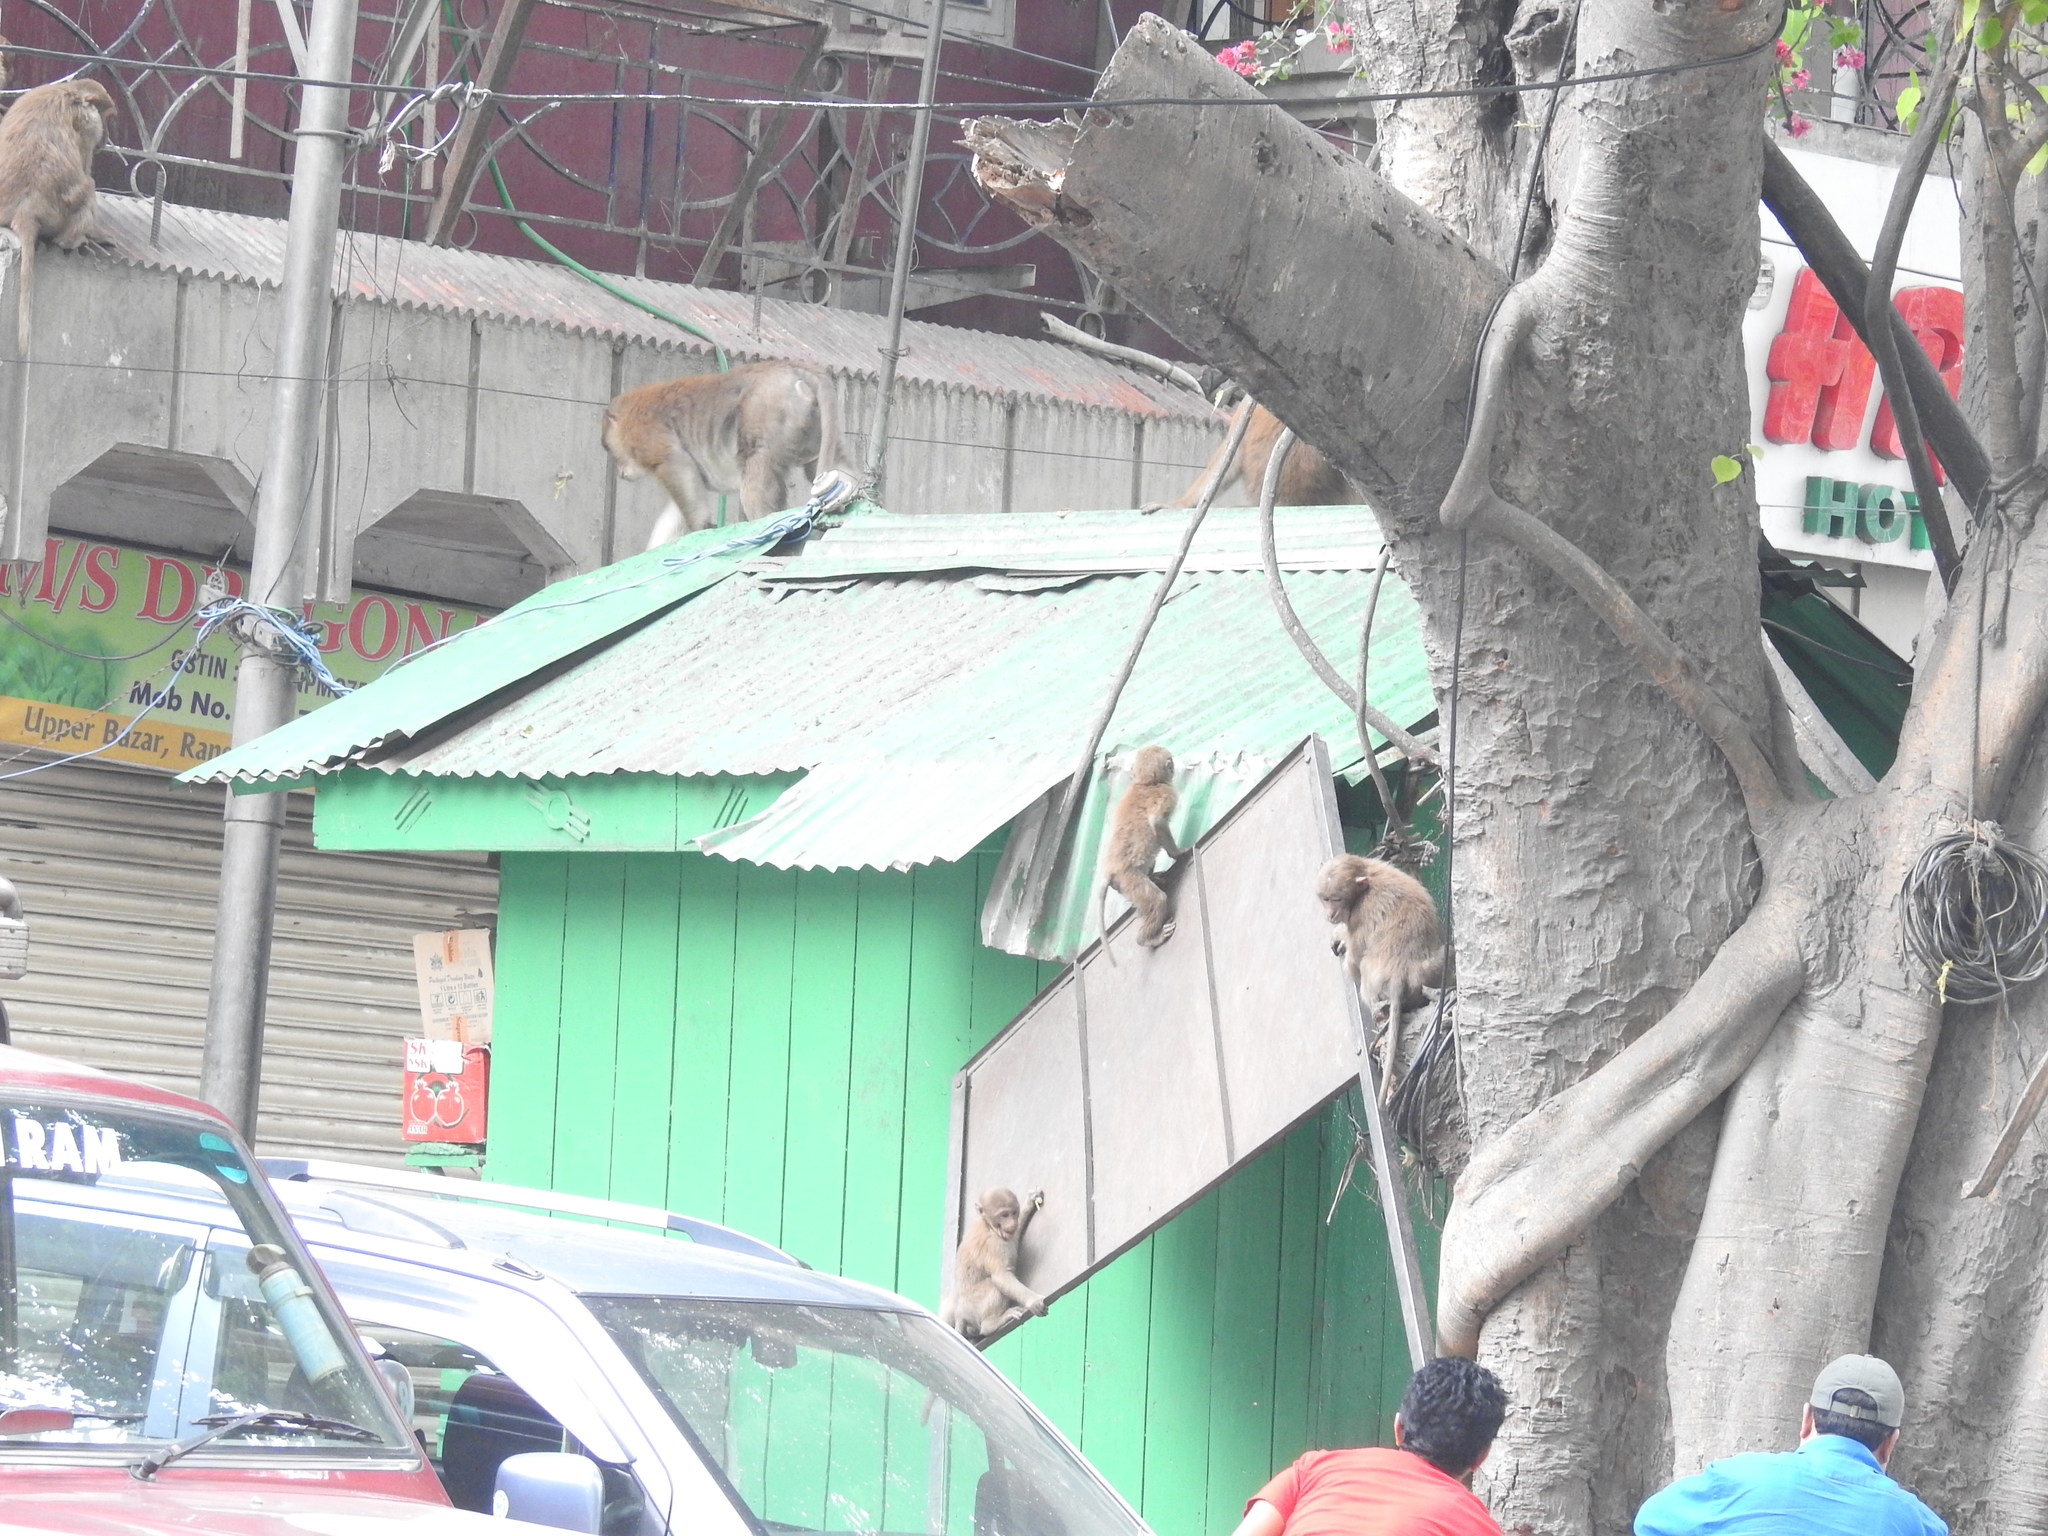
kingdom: Animalia
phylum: Chordata
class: Mammalia
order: Primates
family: Cercopithecidae
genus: Macaca
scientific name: Macaca assamensis
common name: Assam macaque
